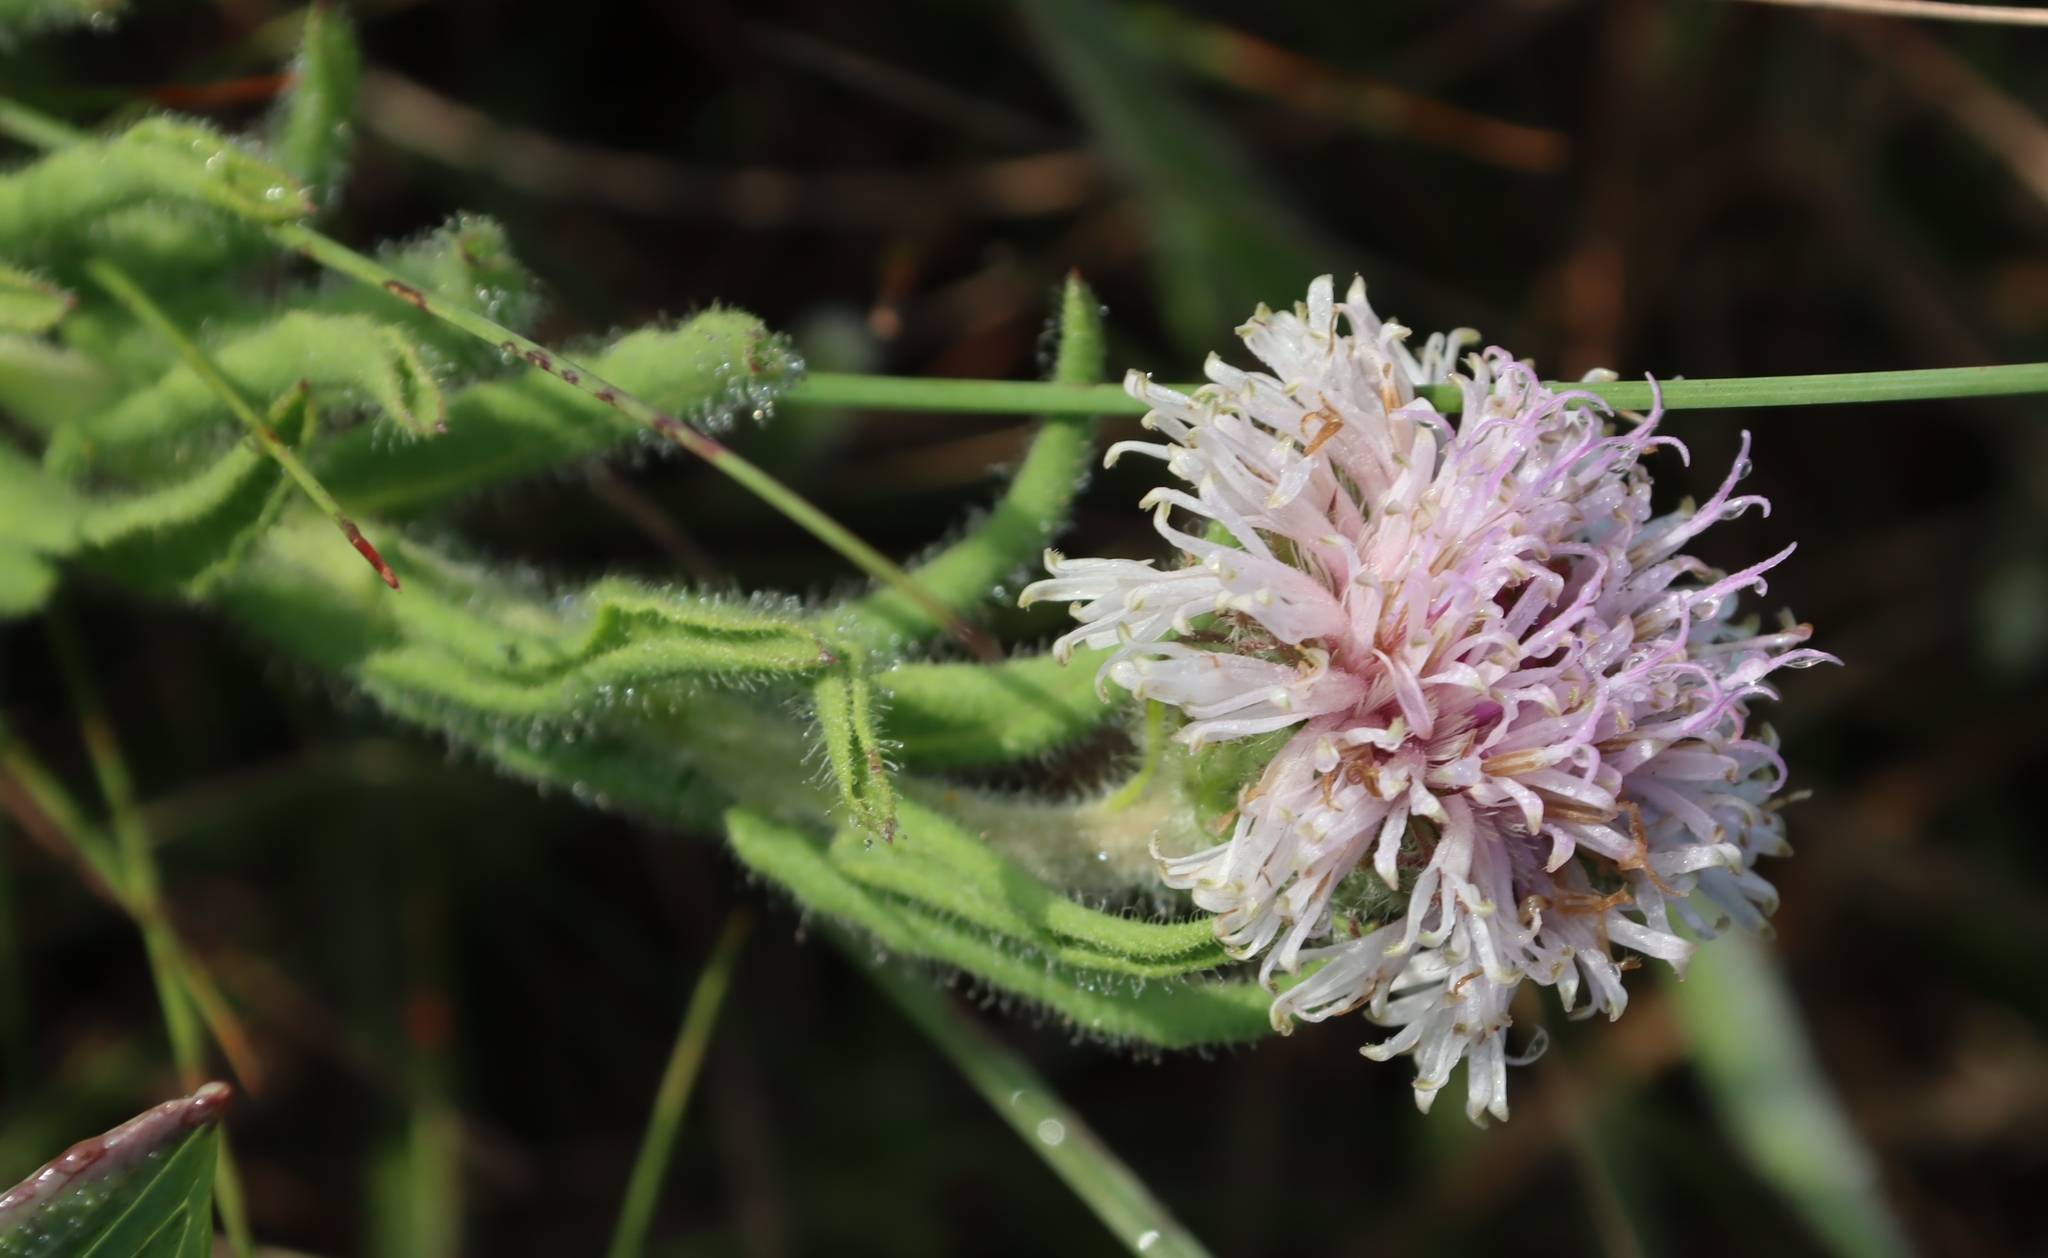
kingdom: Plantae
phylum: Tracheophyta
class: Magnoliopsida
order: Asterales
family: Asteraceae
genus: Pseudopegolettia
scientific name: Pseudopegolettia tenella
